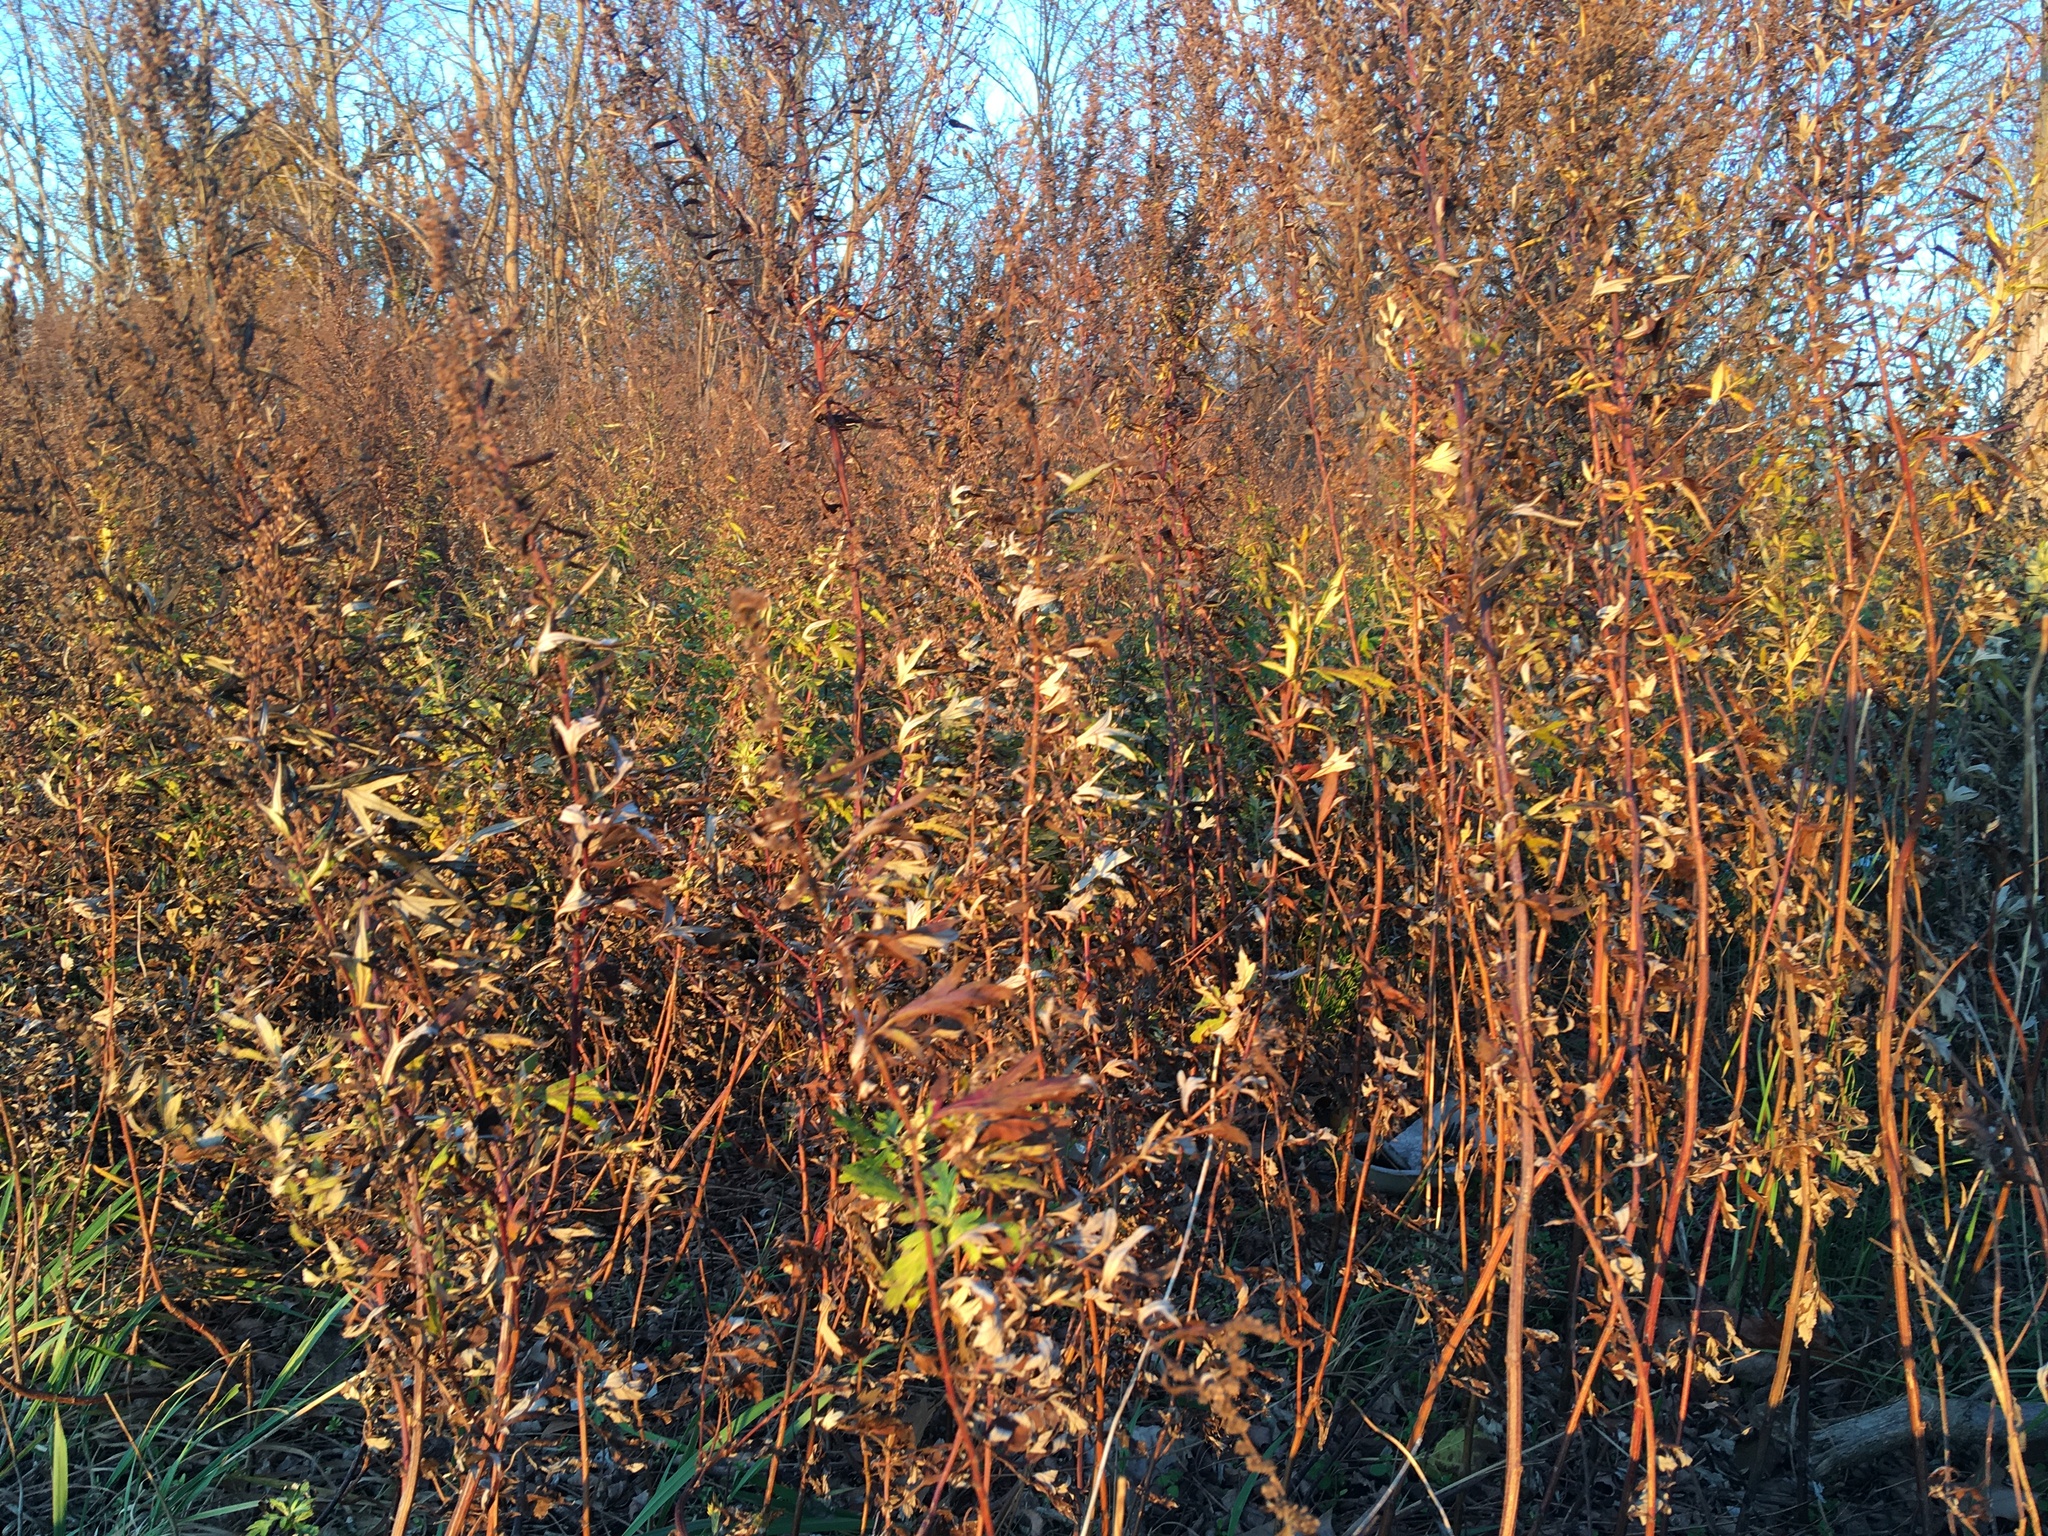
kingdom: Plantae
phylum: Tracheophyta
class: Magnoliopsida
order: Asterales
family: Asteraceae
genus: Artemisia
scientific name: Artemisia vulgaris
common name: Mugwort
